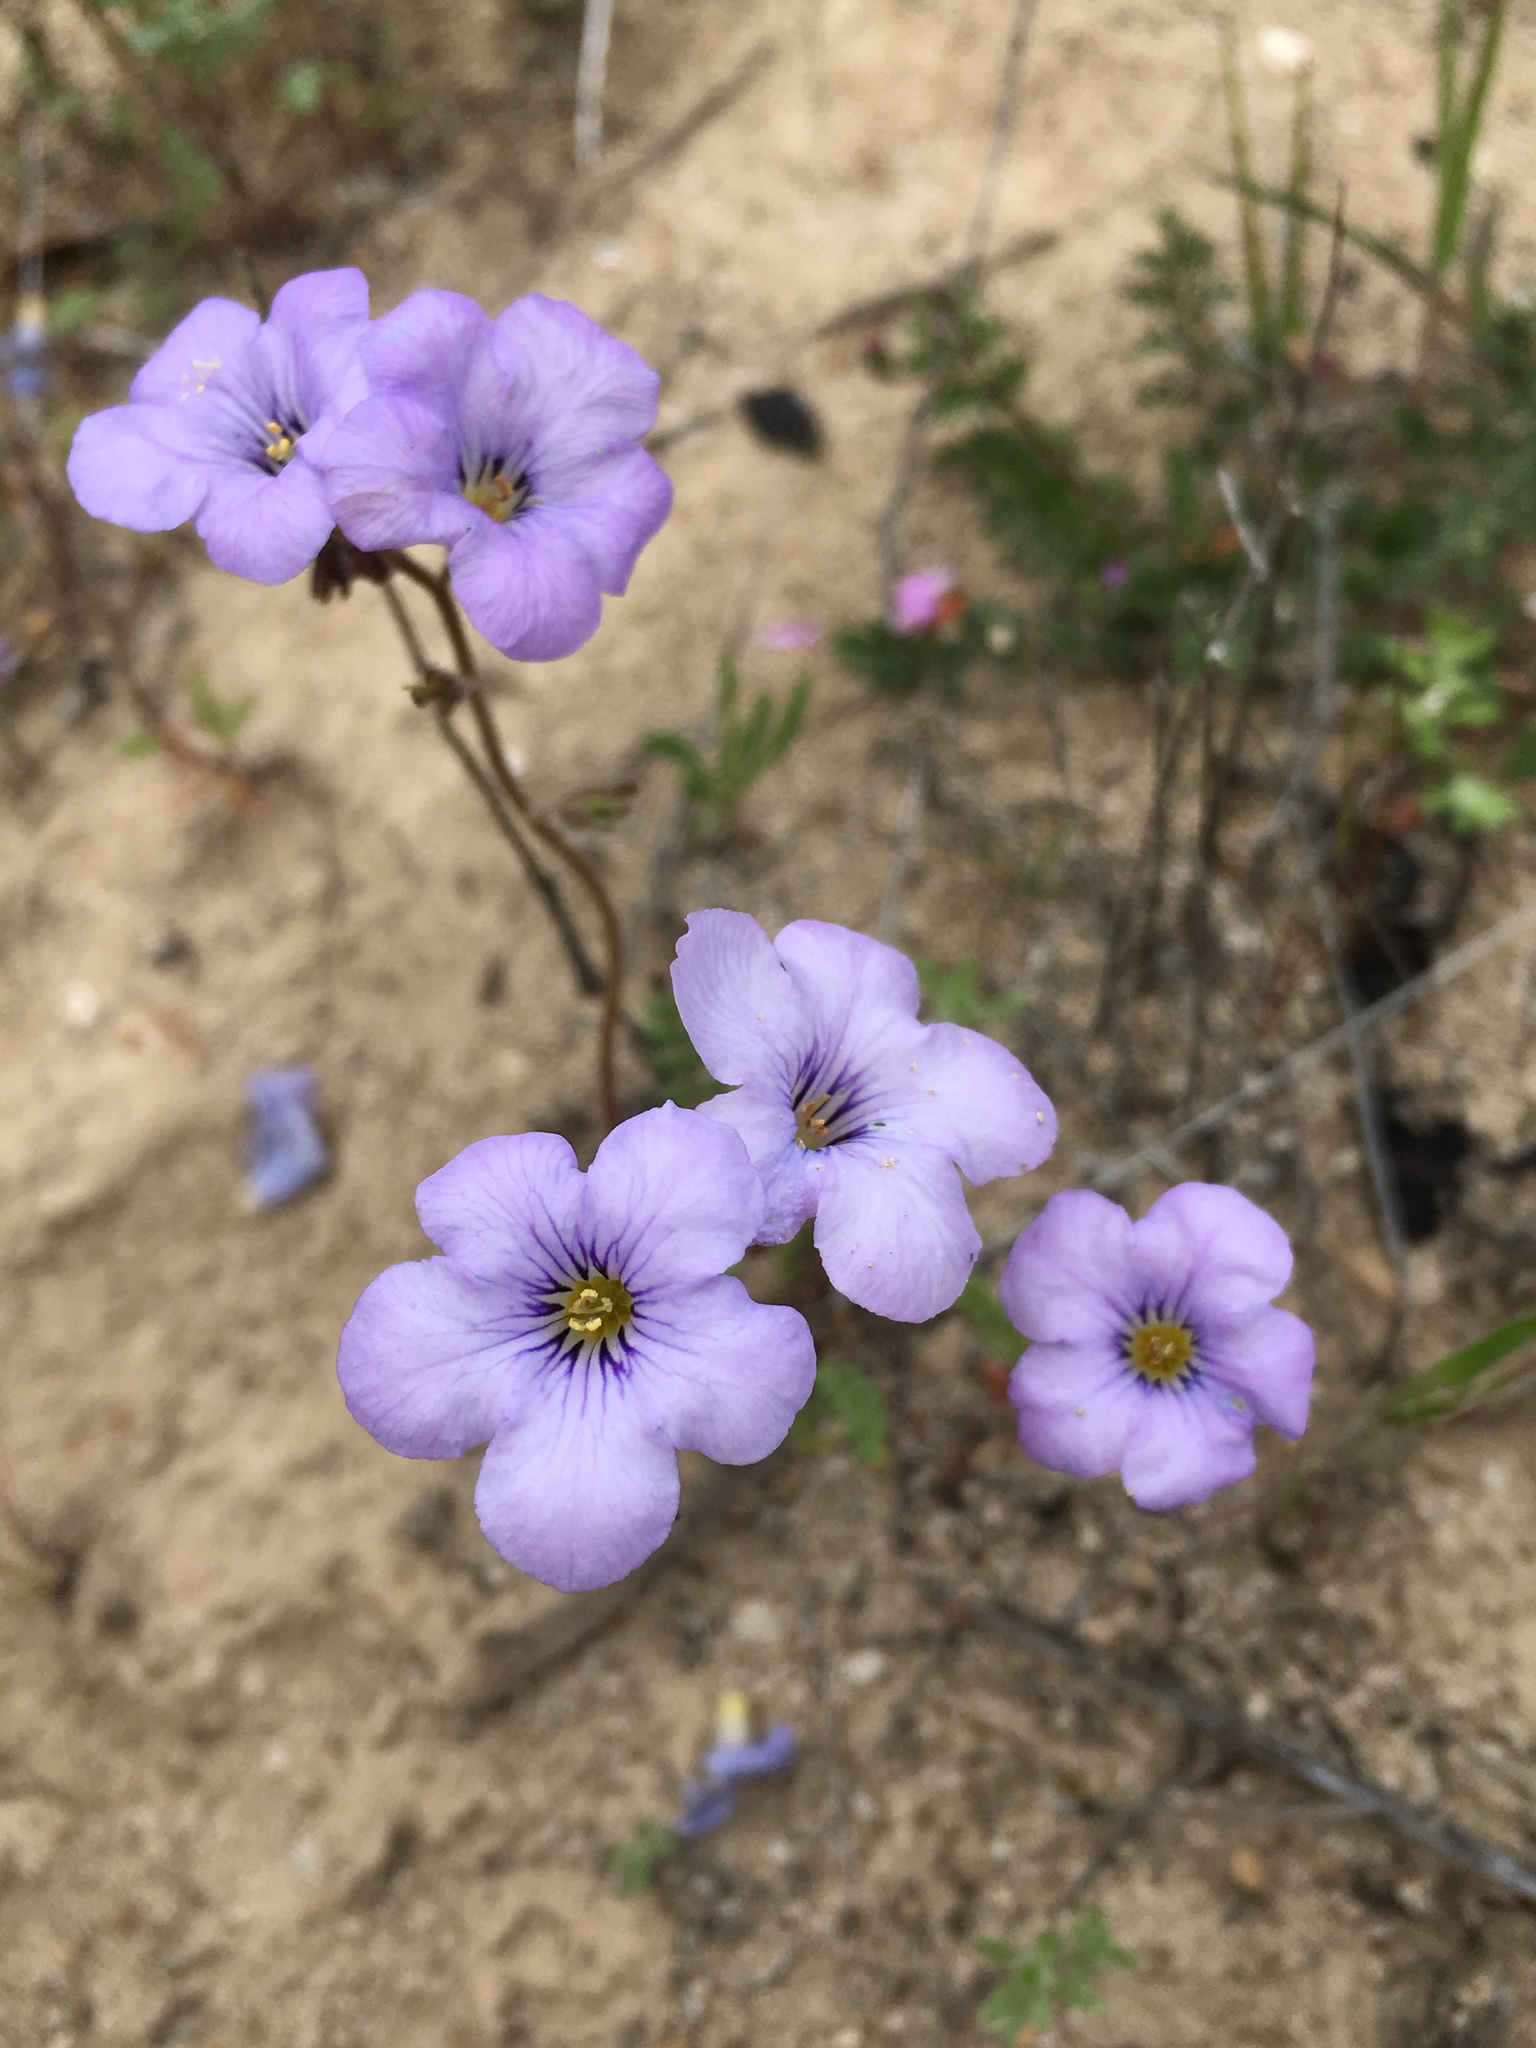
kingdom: Plantae
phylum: Tracheophyta
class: Magnoliopsida
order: Boraginales
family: Hydrophyllaceae
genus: Phacelia
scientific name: Phacelia fremontii
